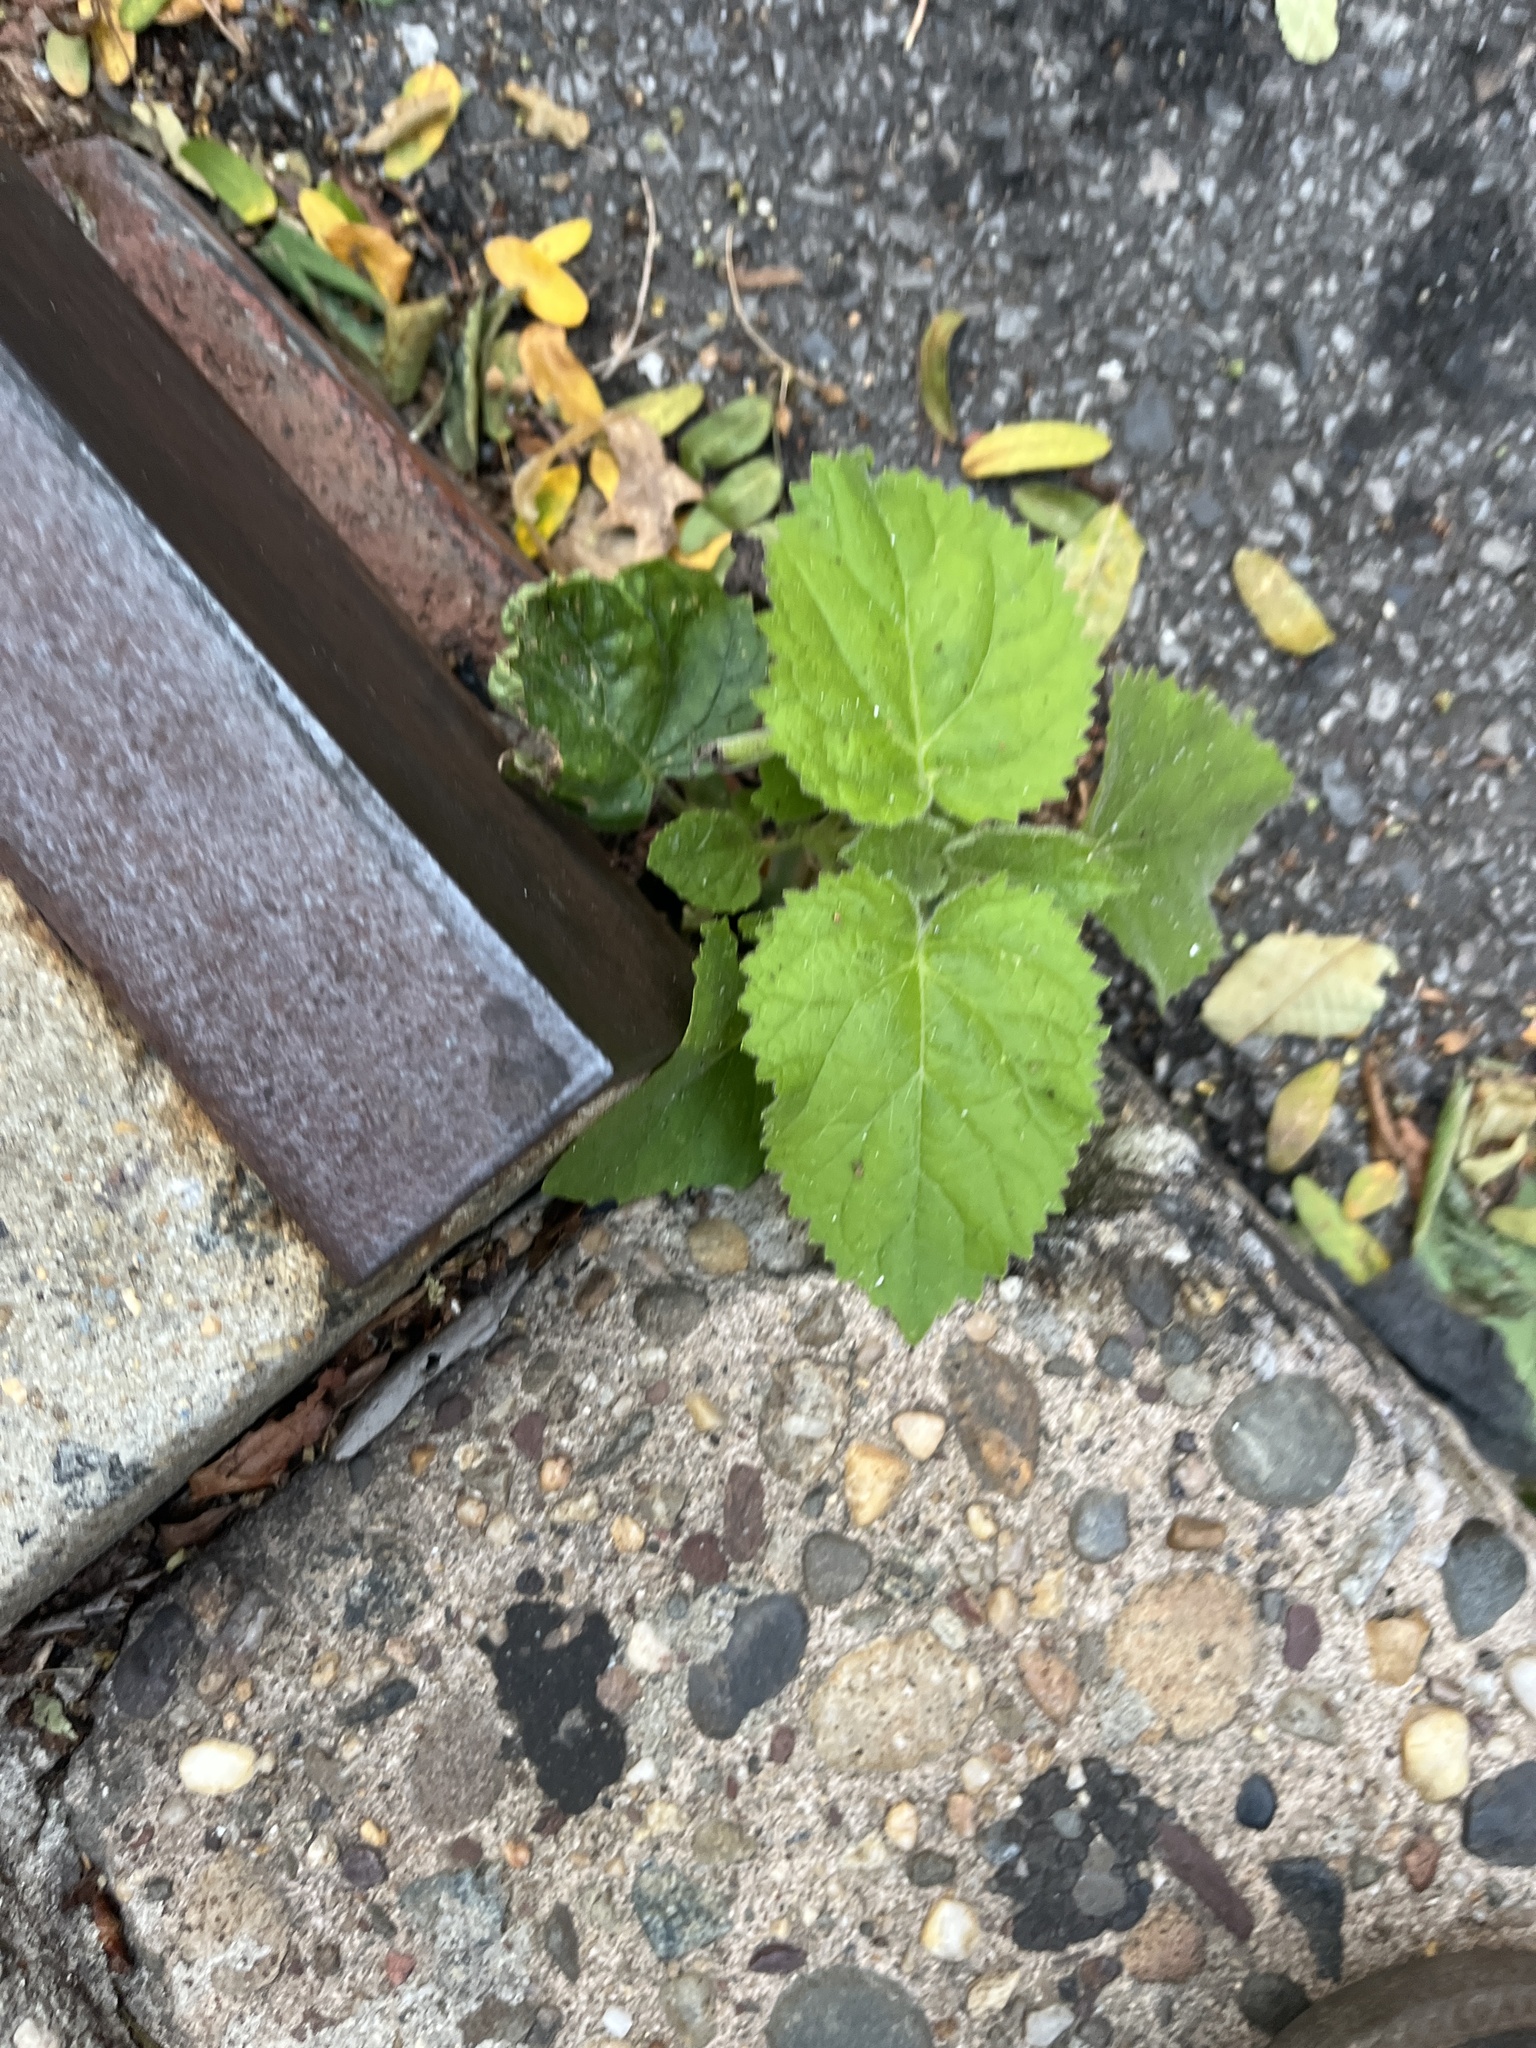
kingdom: Plantae
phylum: Tracheophyta
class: Magnoliopsida
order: Lamiales
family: Paulowniaceae
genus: Paulownia
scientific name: Paulownia tomentosa
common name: Foxglove-tree
